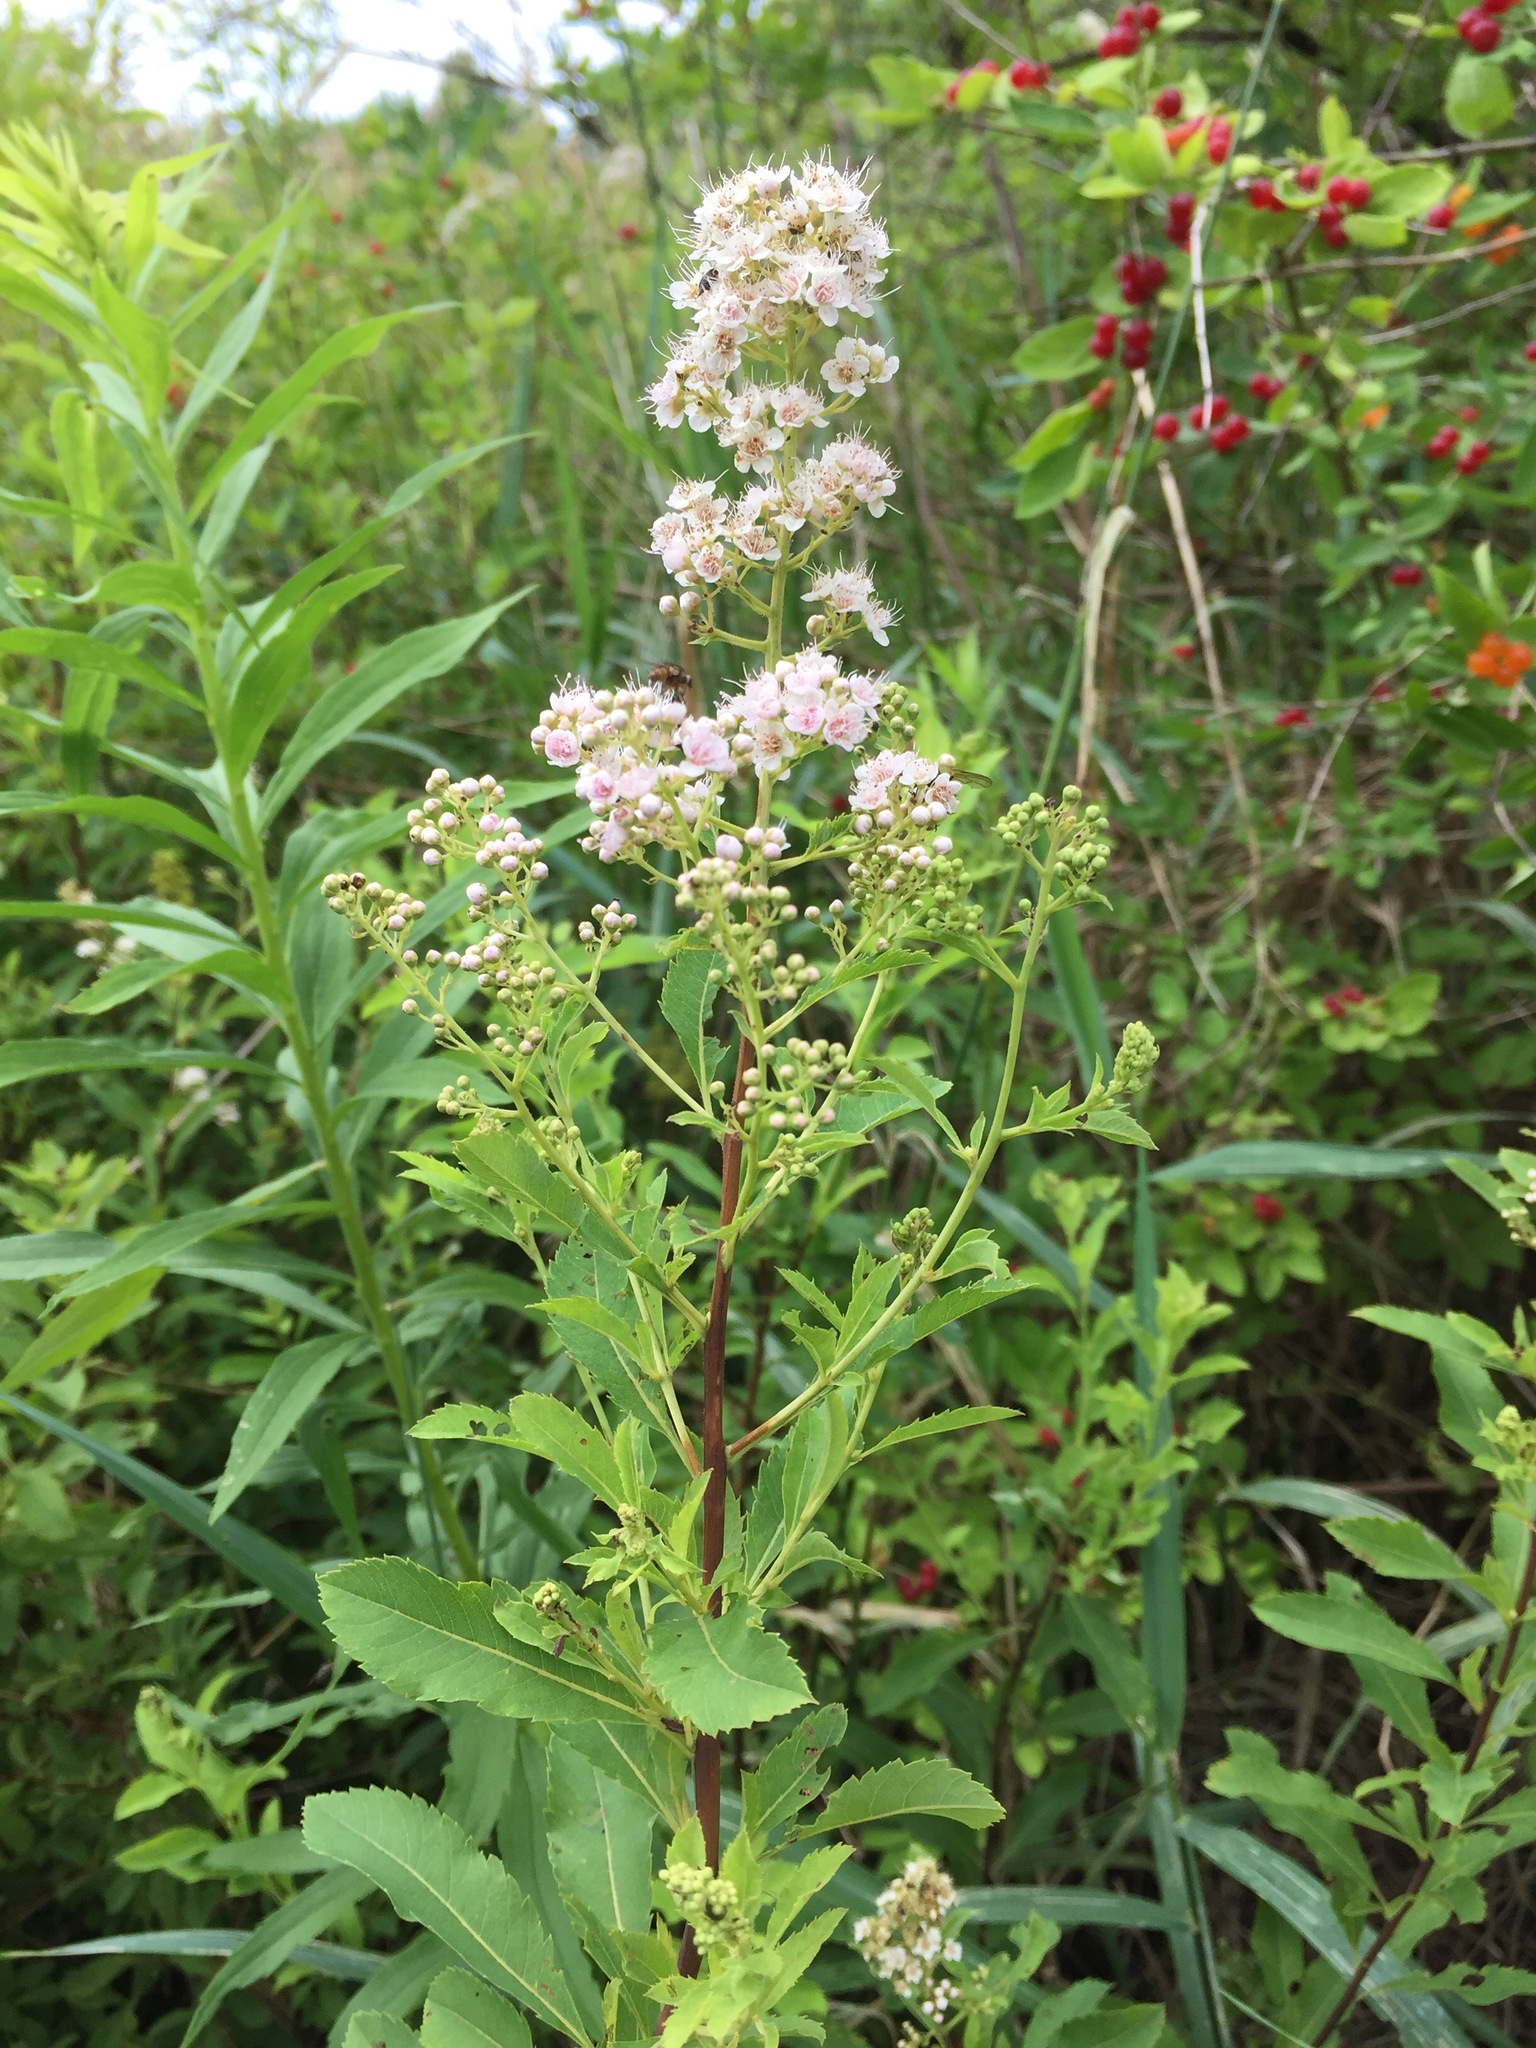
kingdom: Plantae
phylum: Tracheophyta
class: Magnoliopsida
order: Rosales
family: Rosaceae
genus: Spiraea
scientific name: Spiraea alba
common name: Pale bridewort
